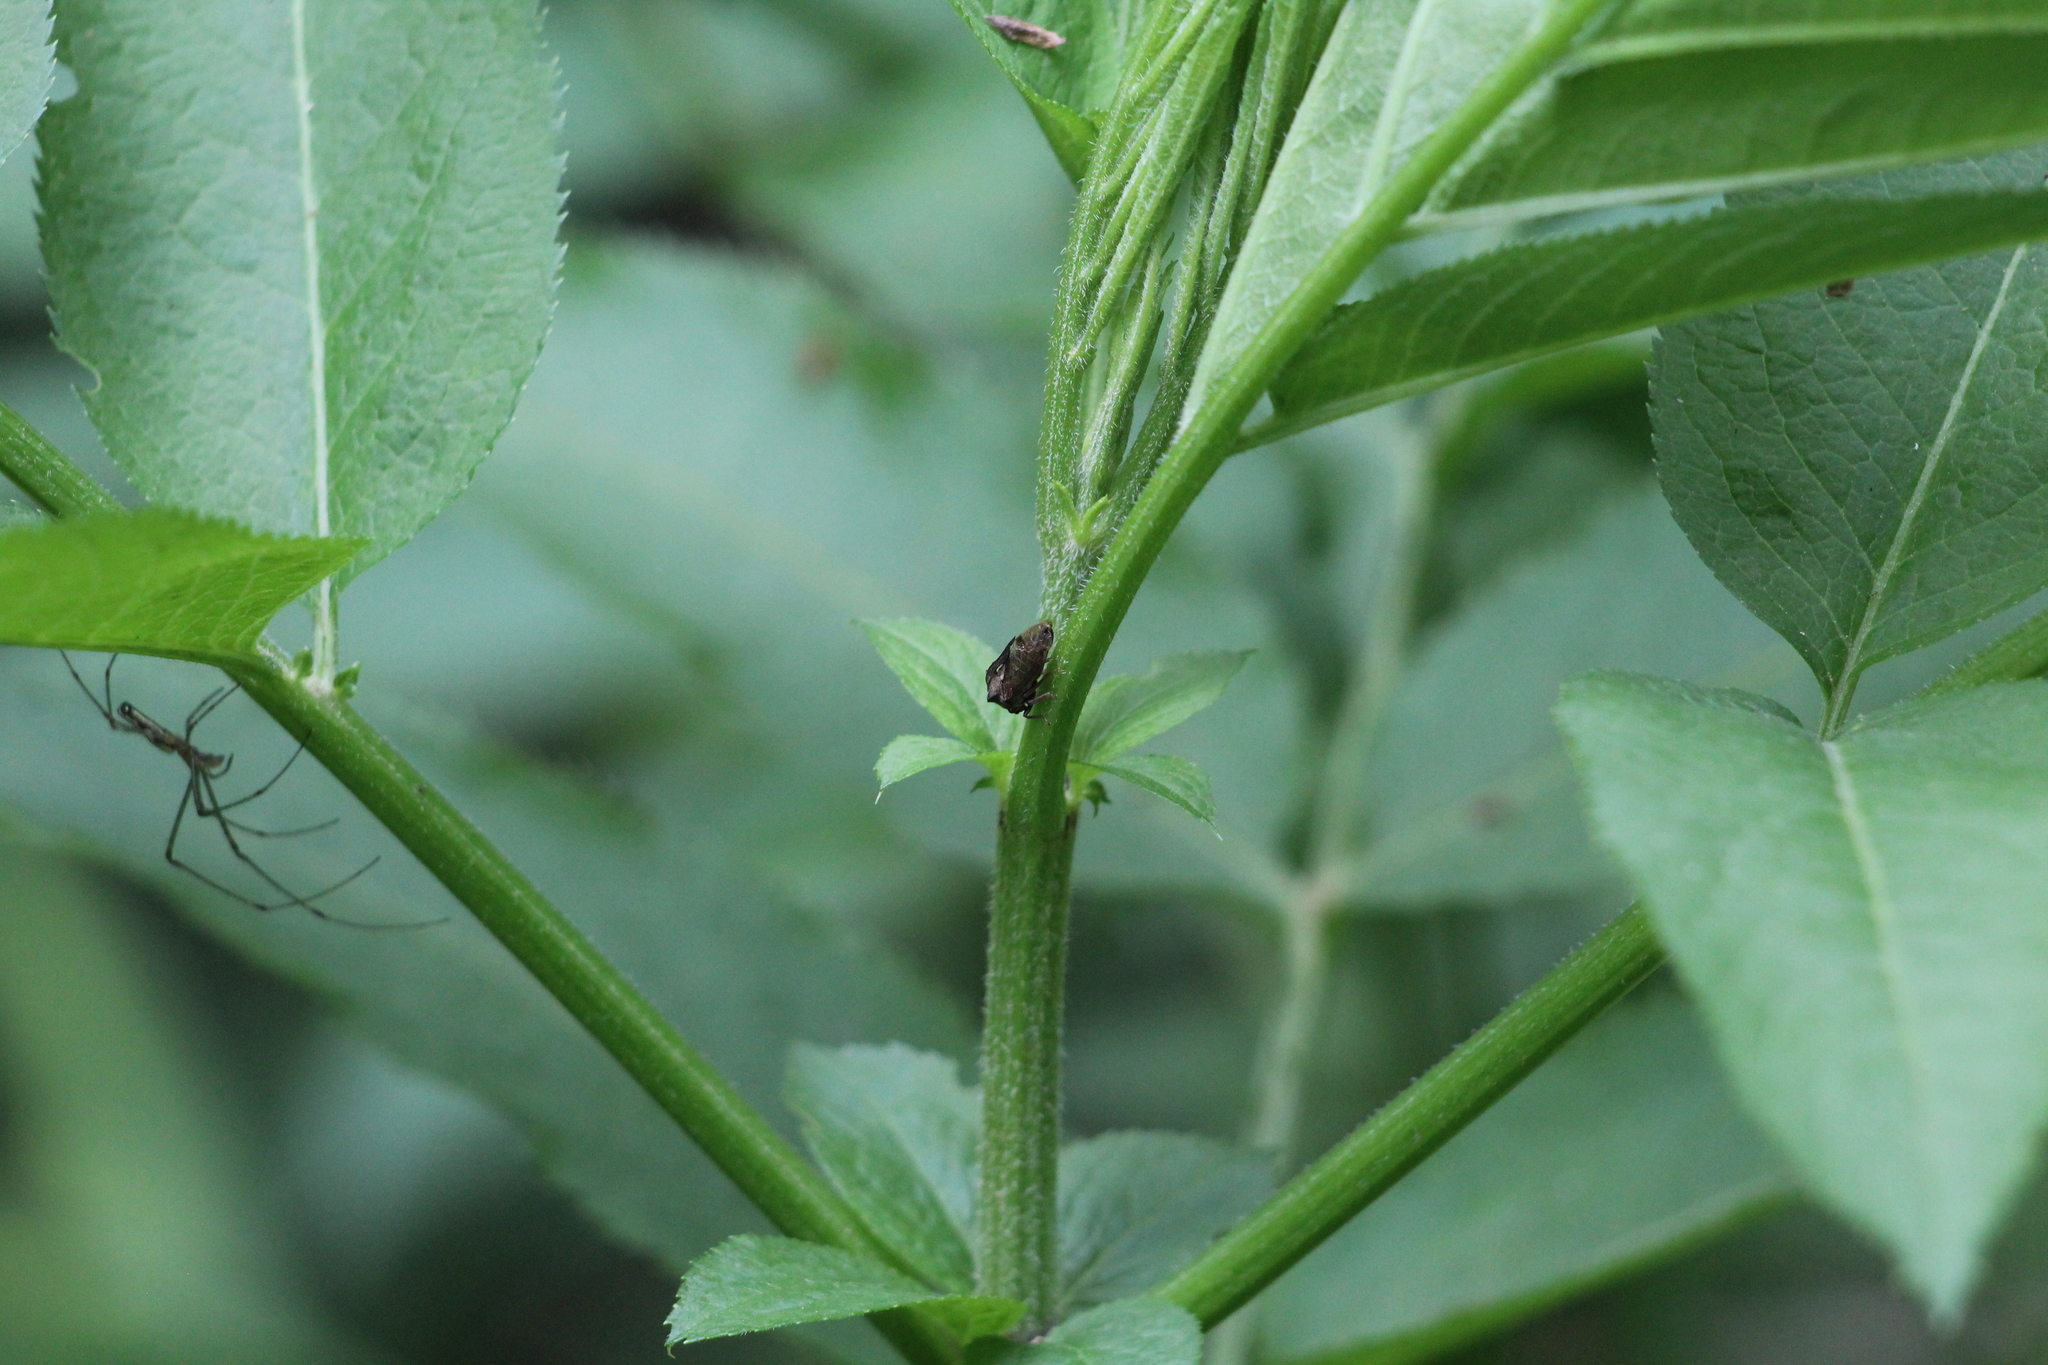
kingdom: Animalia
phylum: Arthropoda
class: Insecta
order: Hemiptera
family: Membracidae
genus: Centrotus
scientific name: Centrotus cornuta
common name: Treehopper
